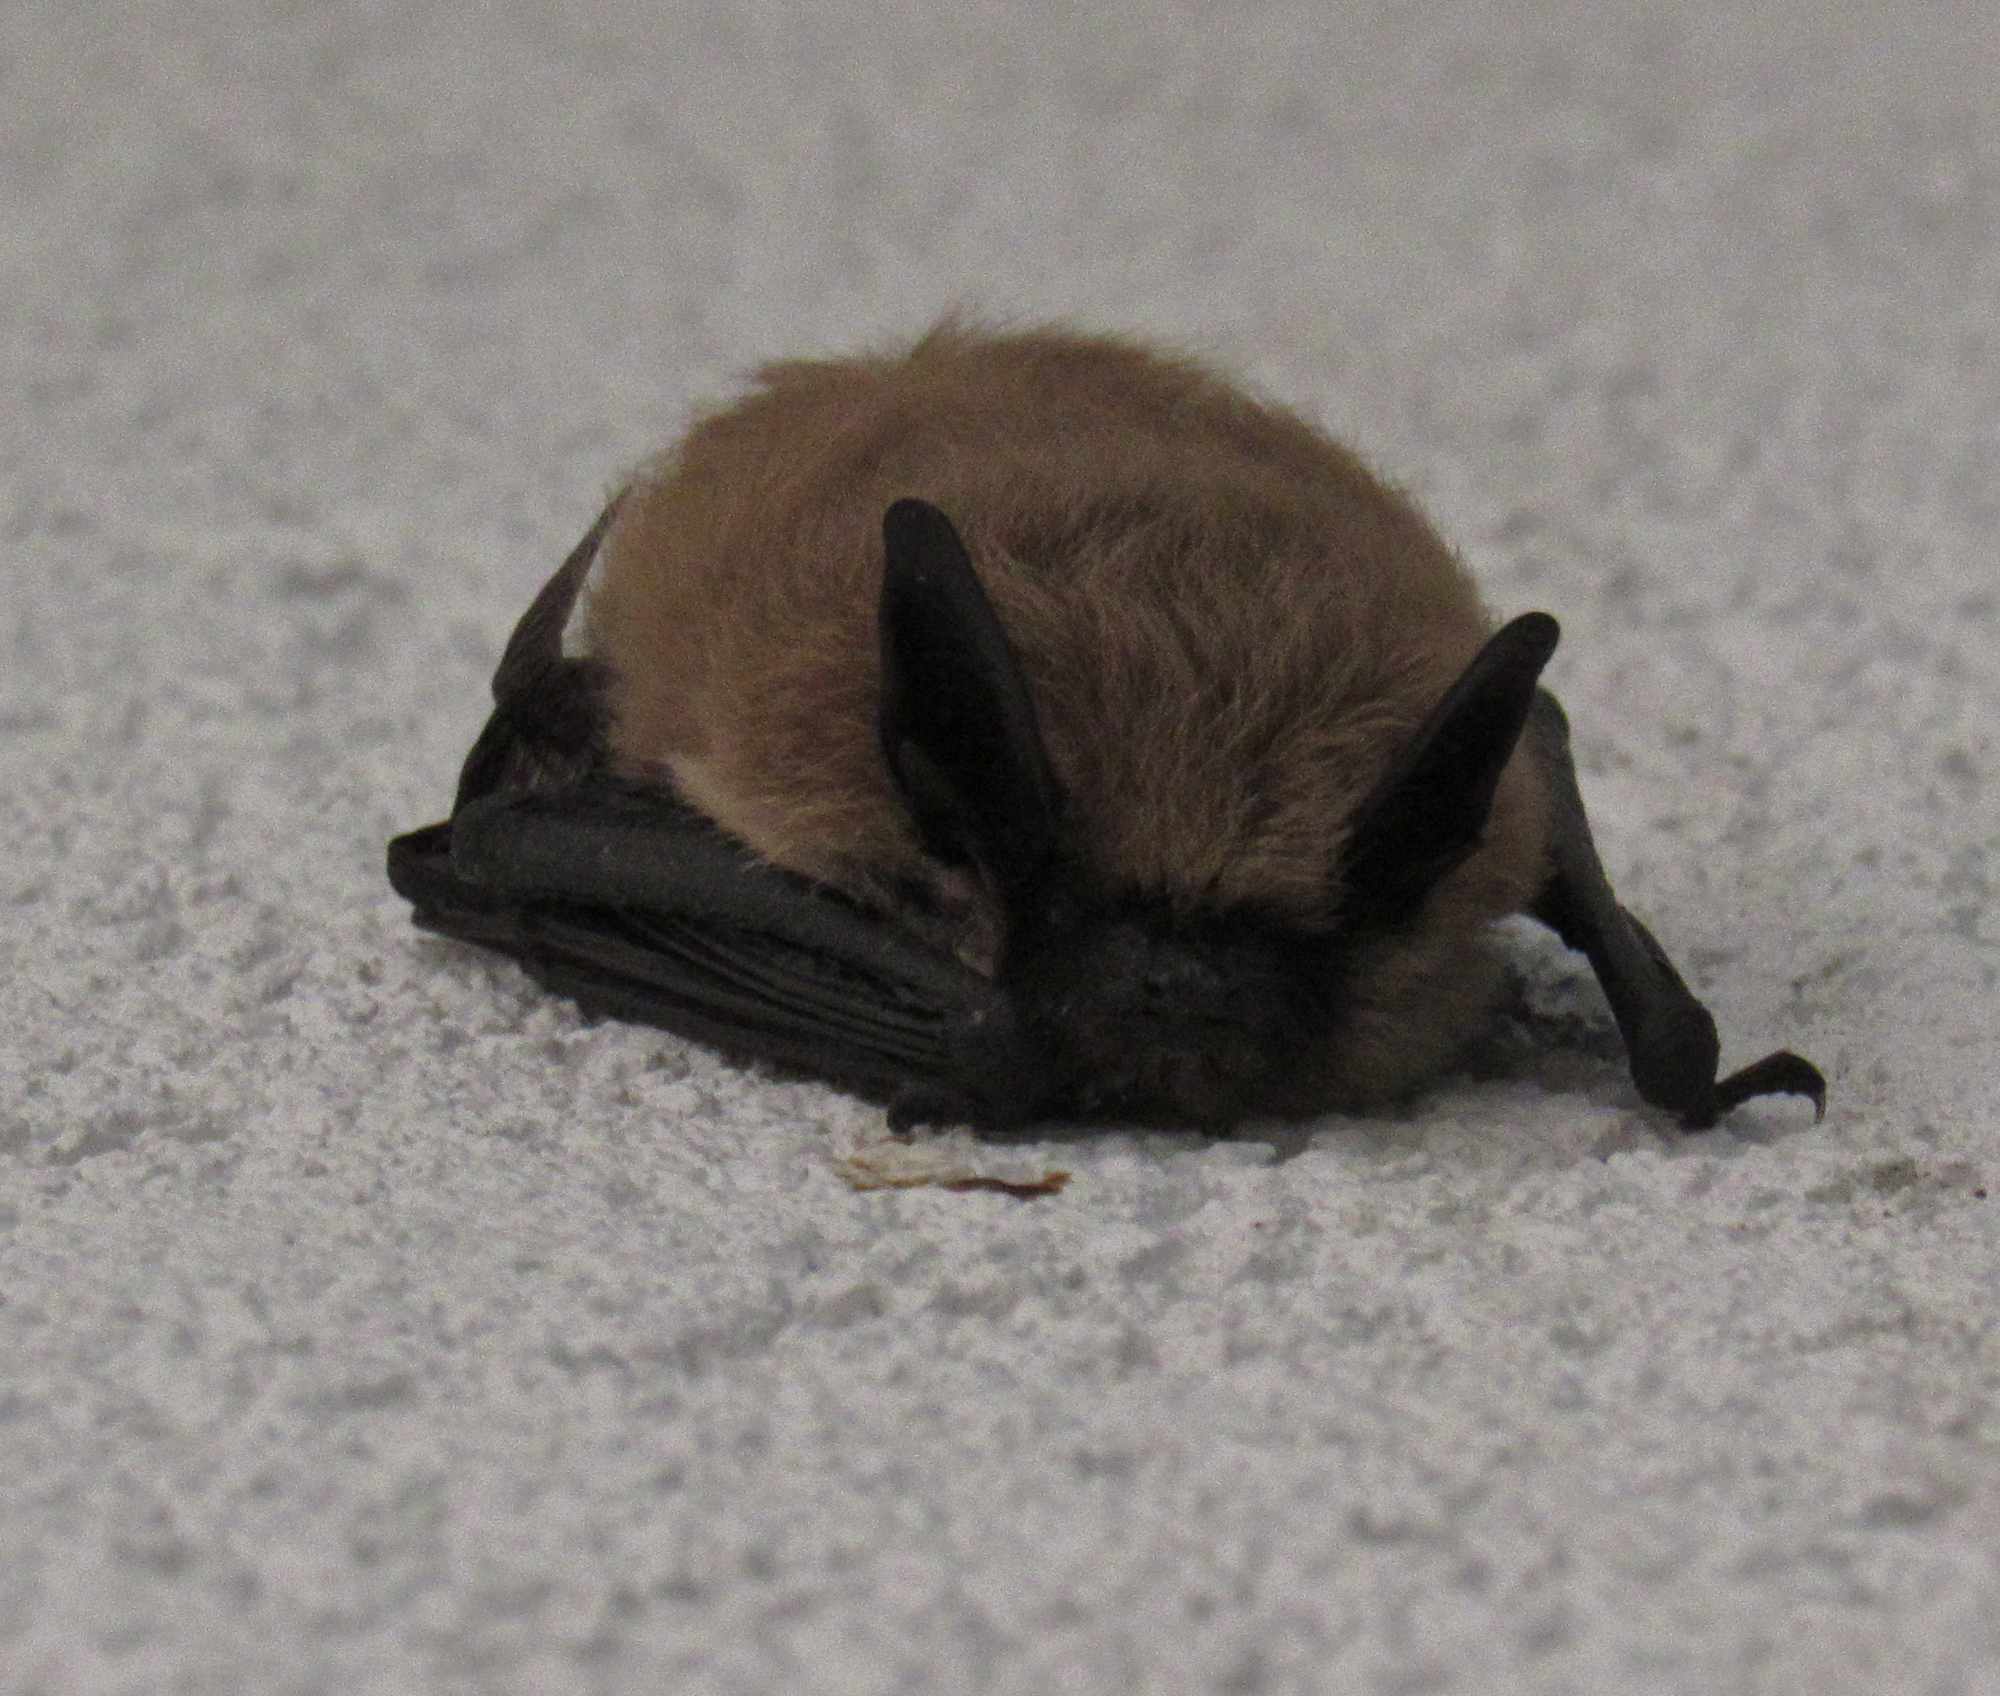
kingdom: Animalia
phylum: Chordata
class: Mammalia
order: Chiroptera
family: Vespertilionidae
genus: Myotis
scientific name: Myotis
